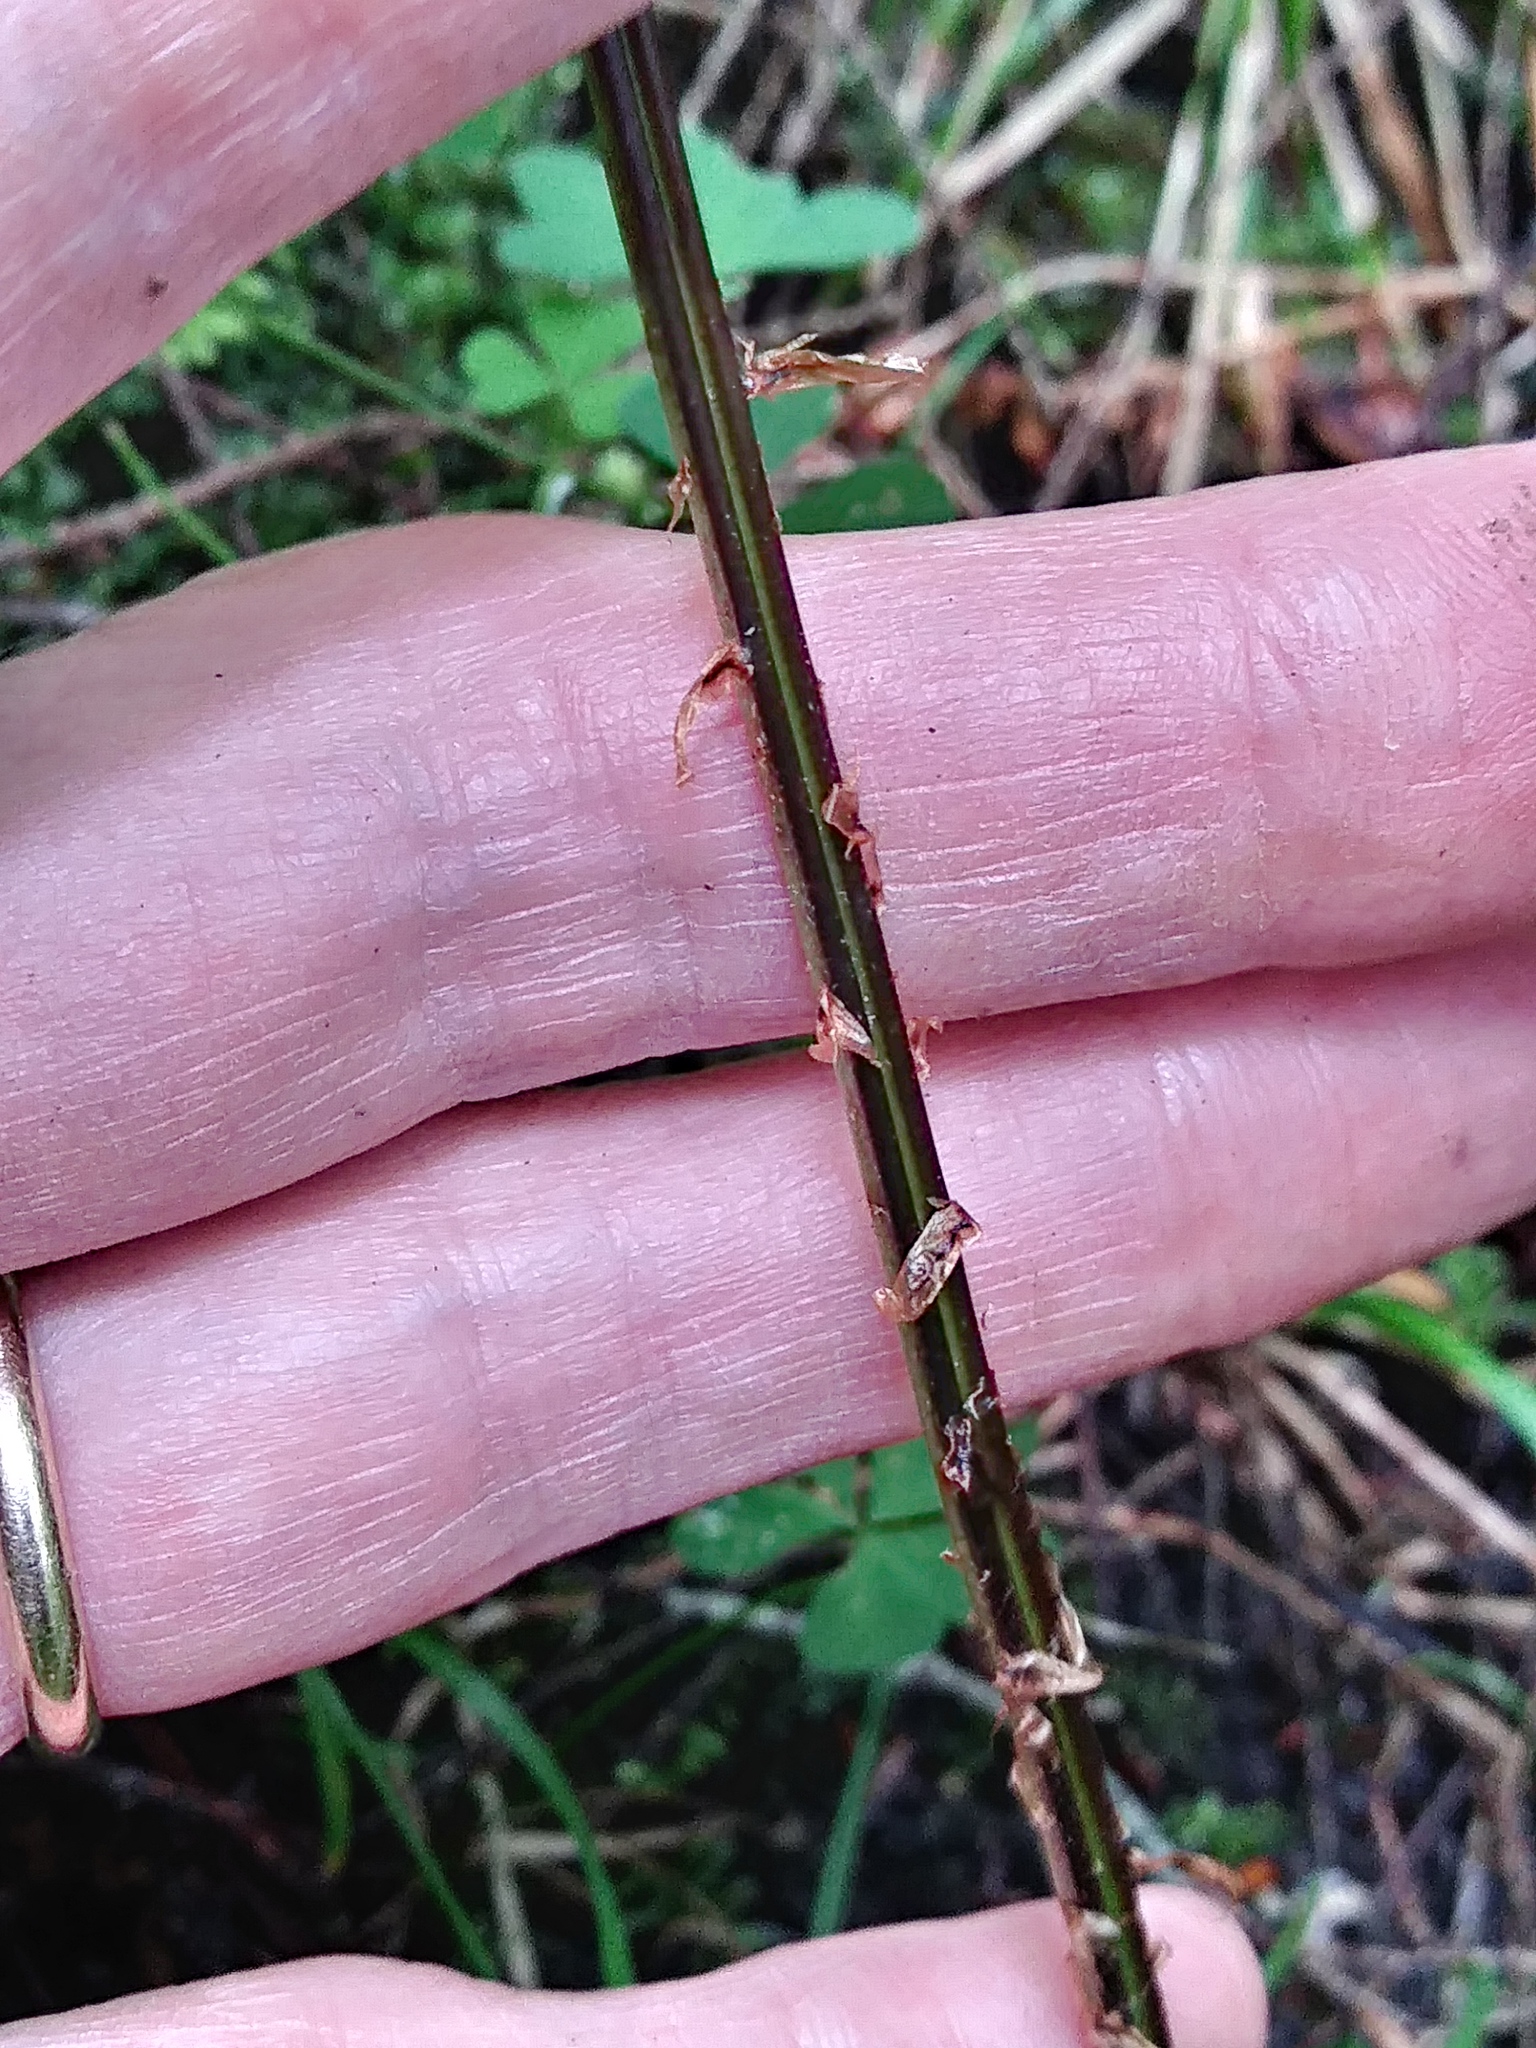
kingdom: Plantae
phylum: Tracheophyta
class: Polypodiopsida
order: Polypodiales
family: Dryopteridaceae
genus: Dryopteris
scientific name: Dryopteris intermedia
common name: Evergreen wood fern
